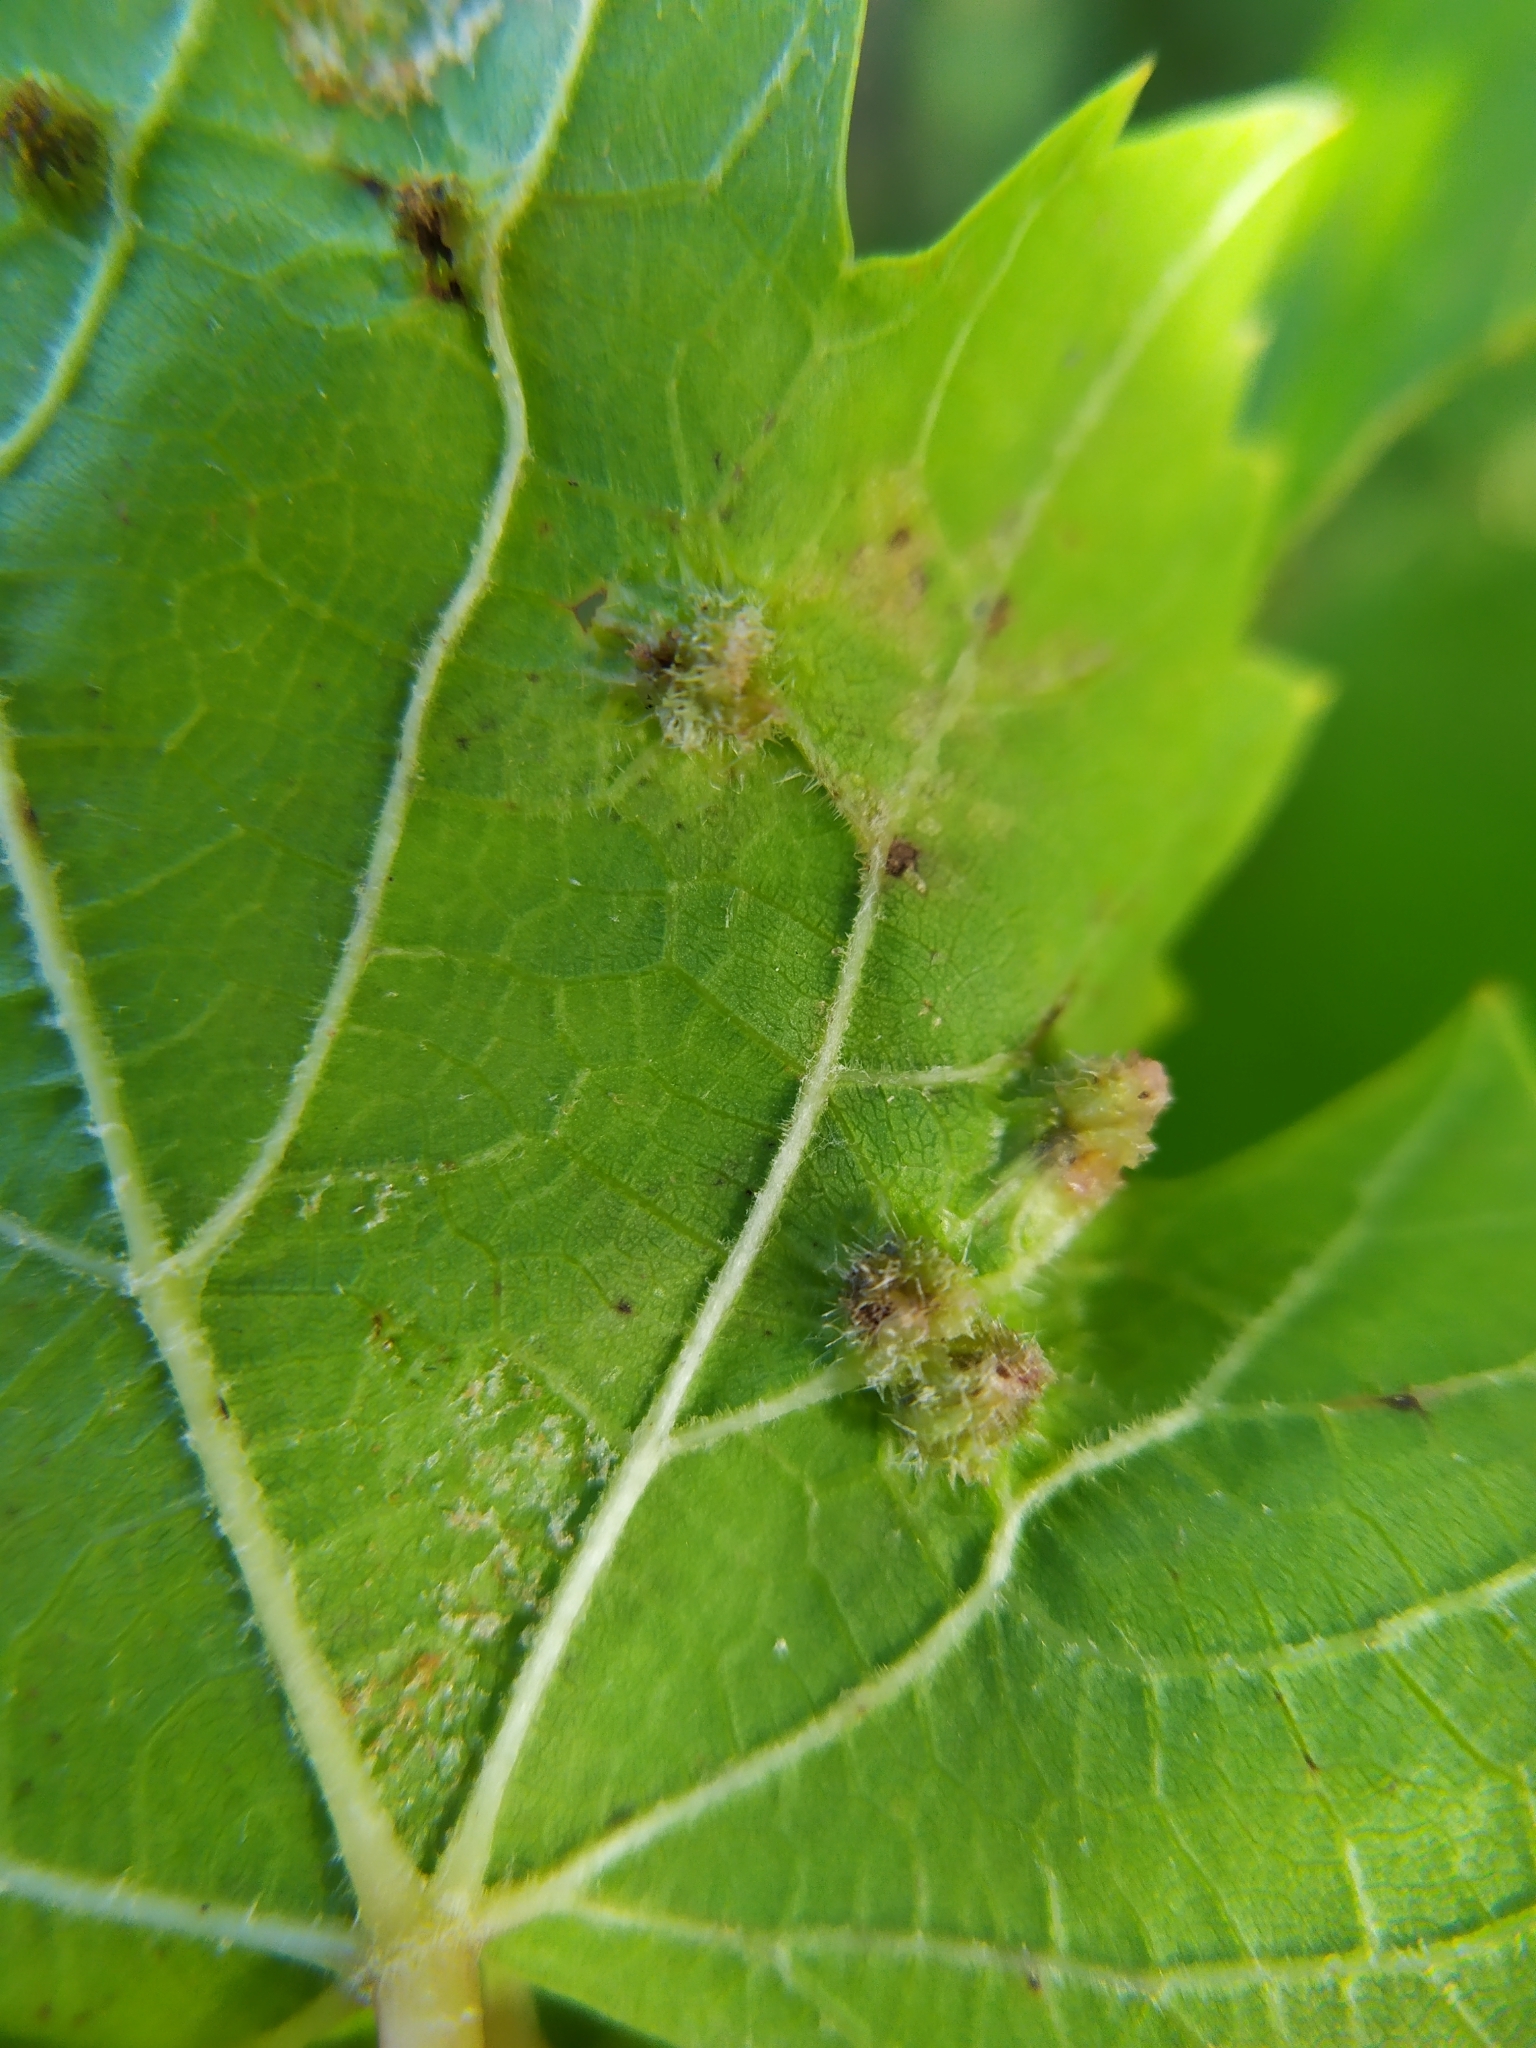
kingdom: Animalia
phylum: Arthropoda
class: Insecta
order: Hemiptera
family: Phylloxeridae
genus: Daktulosphaira
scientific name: Daktulosphaira vitifoliae
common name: Grape phylloxera
